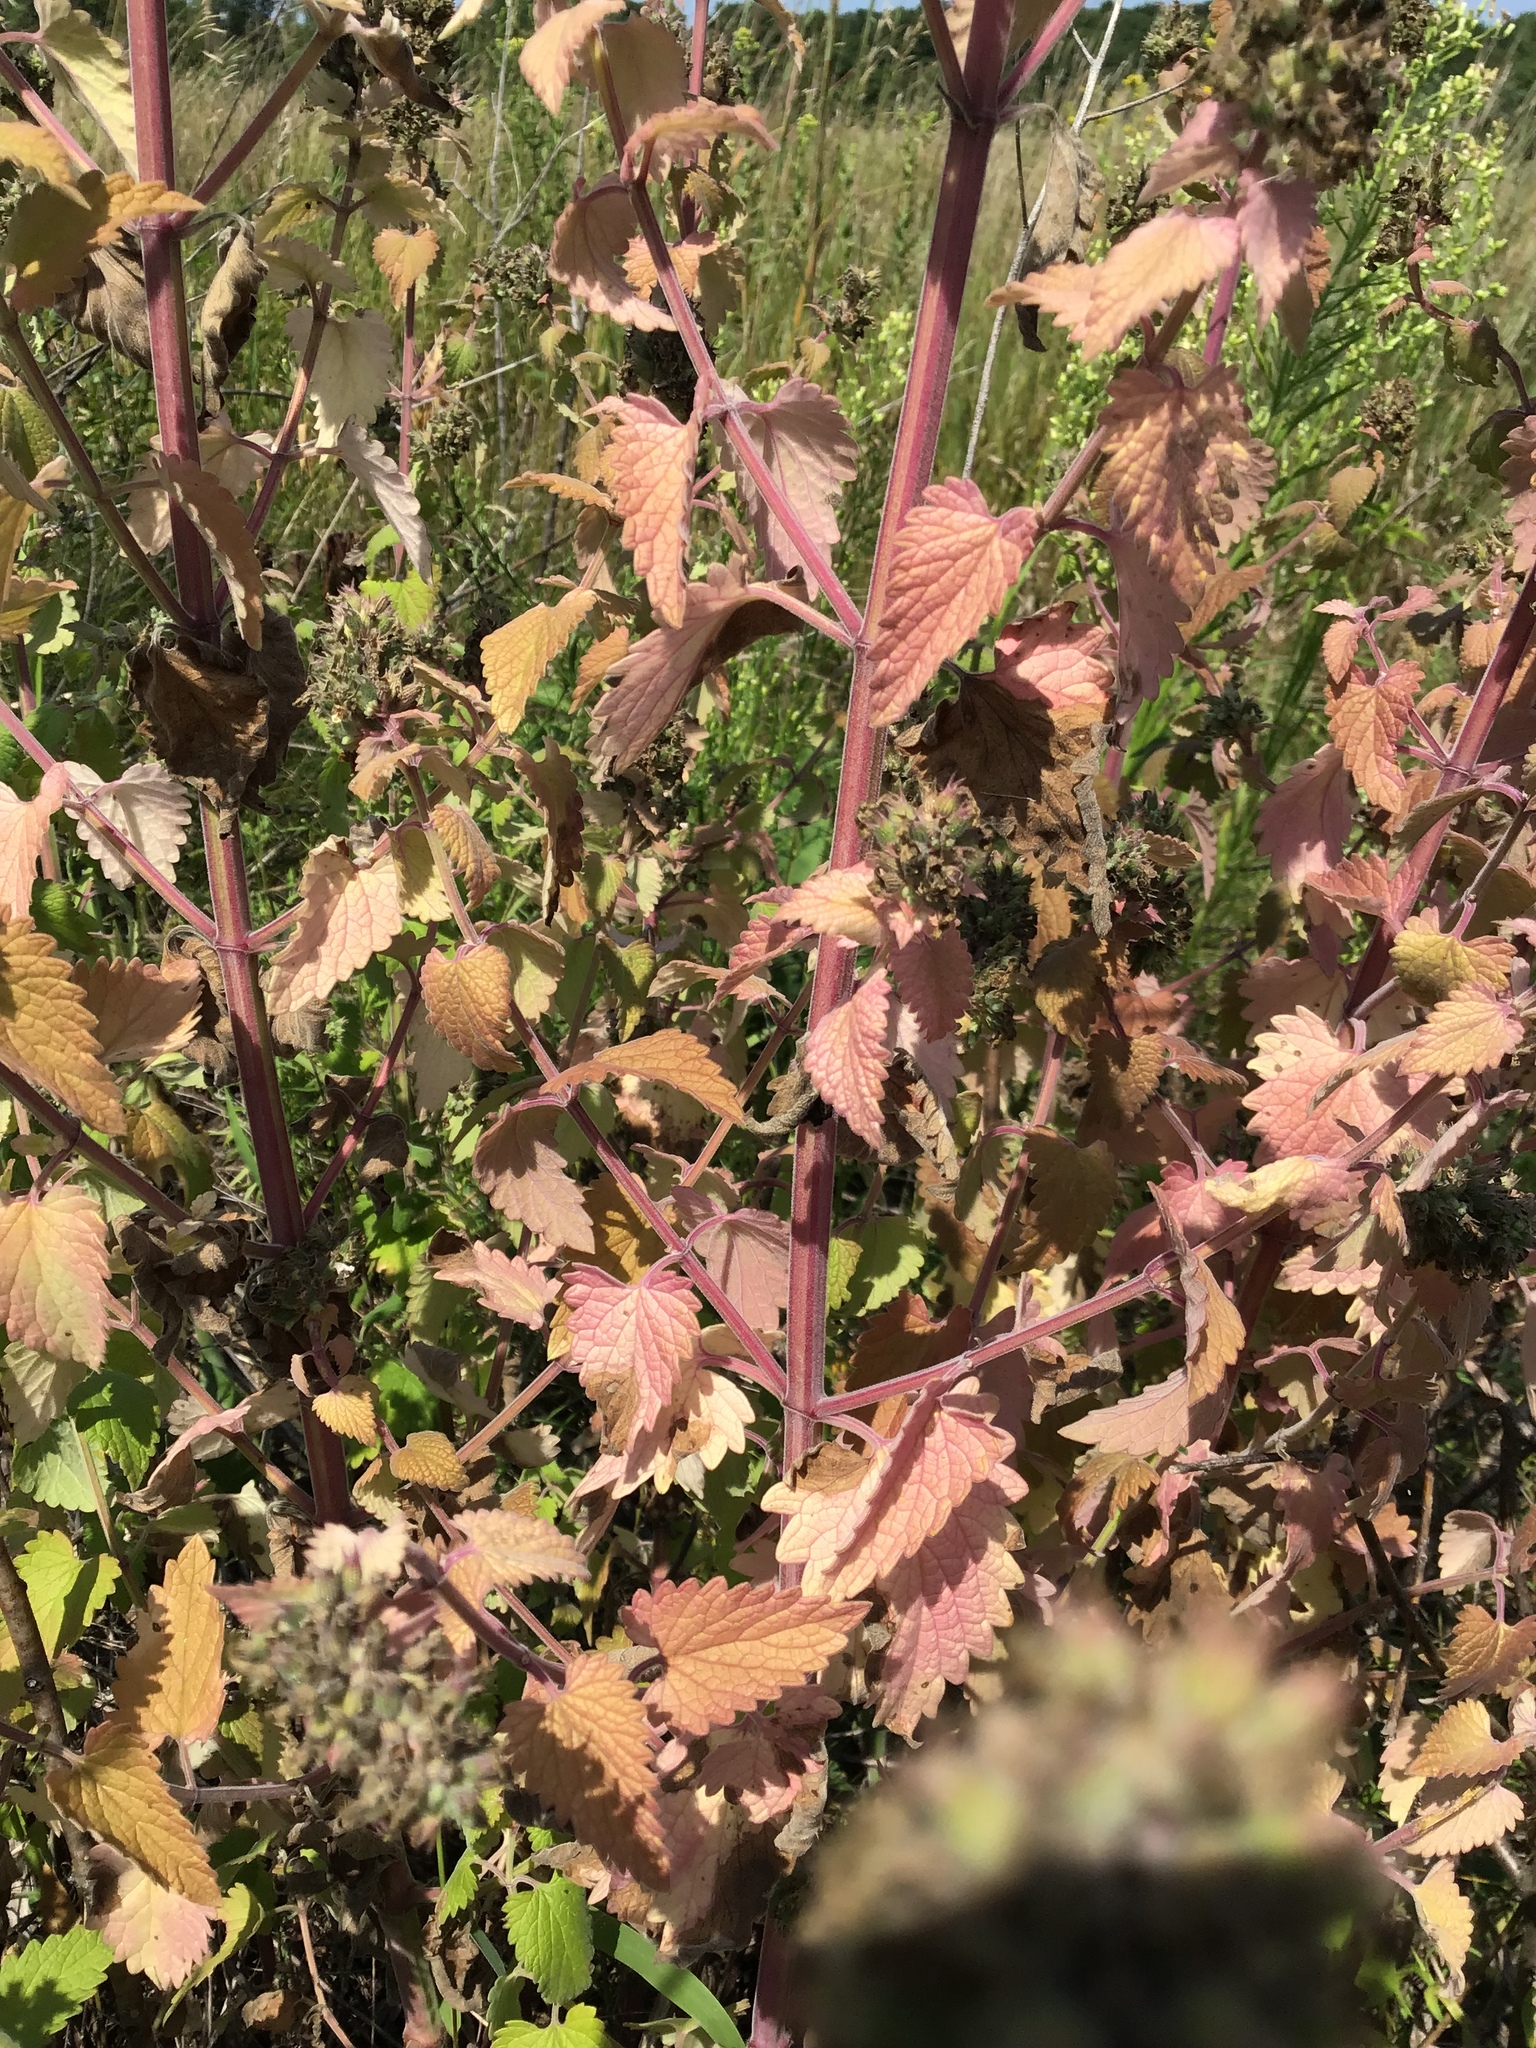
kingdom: Plantae
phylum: Tracheophyta
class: Magnoliopsida
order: Lamiales
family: Lamiaceae
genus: Nepeta
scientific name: Nepeta cataria
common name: Catnip
